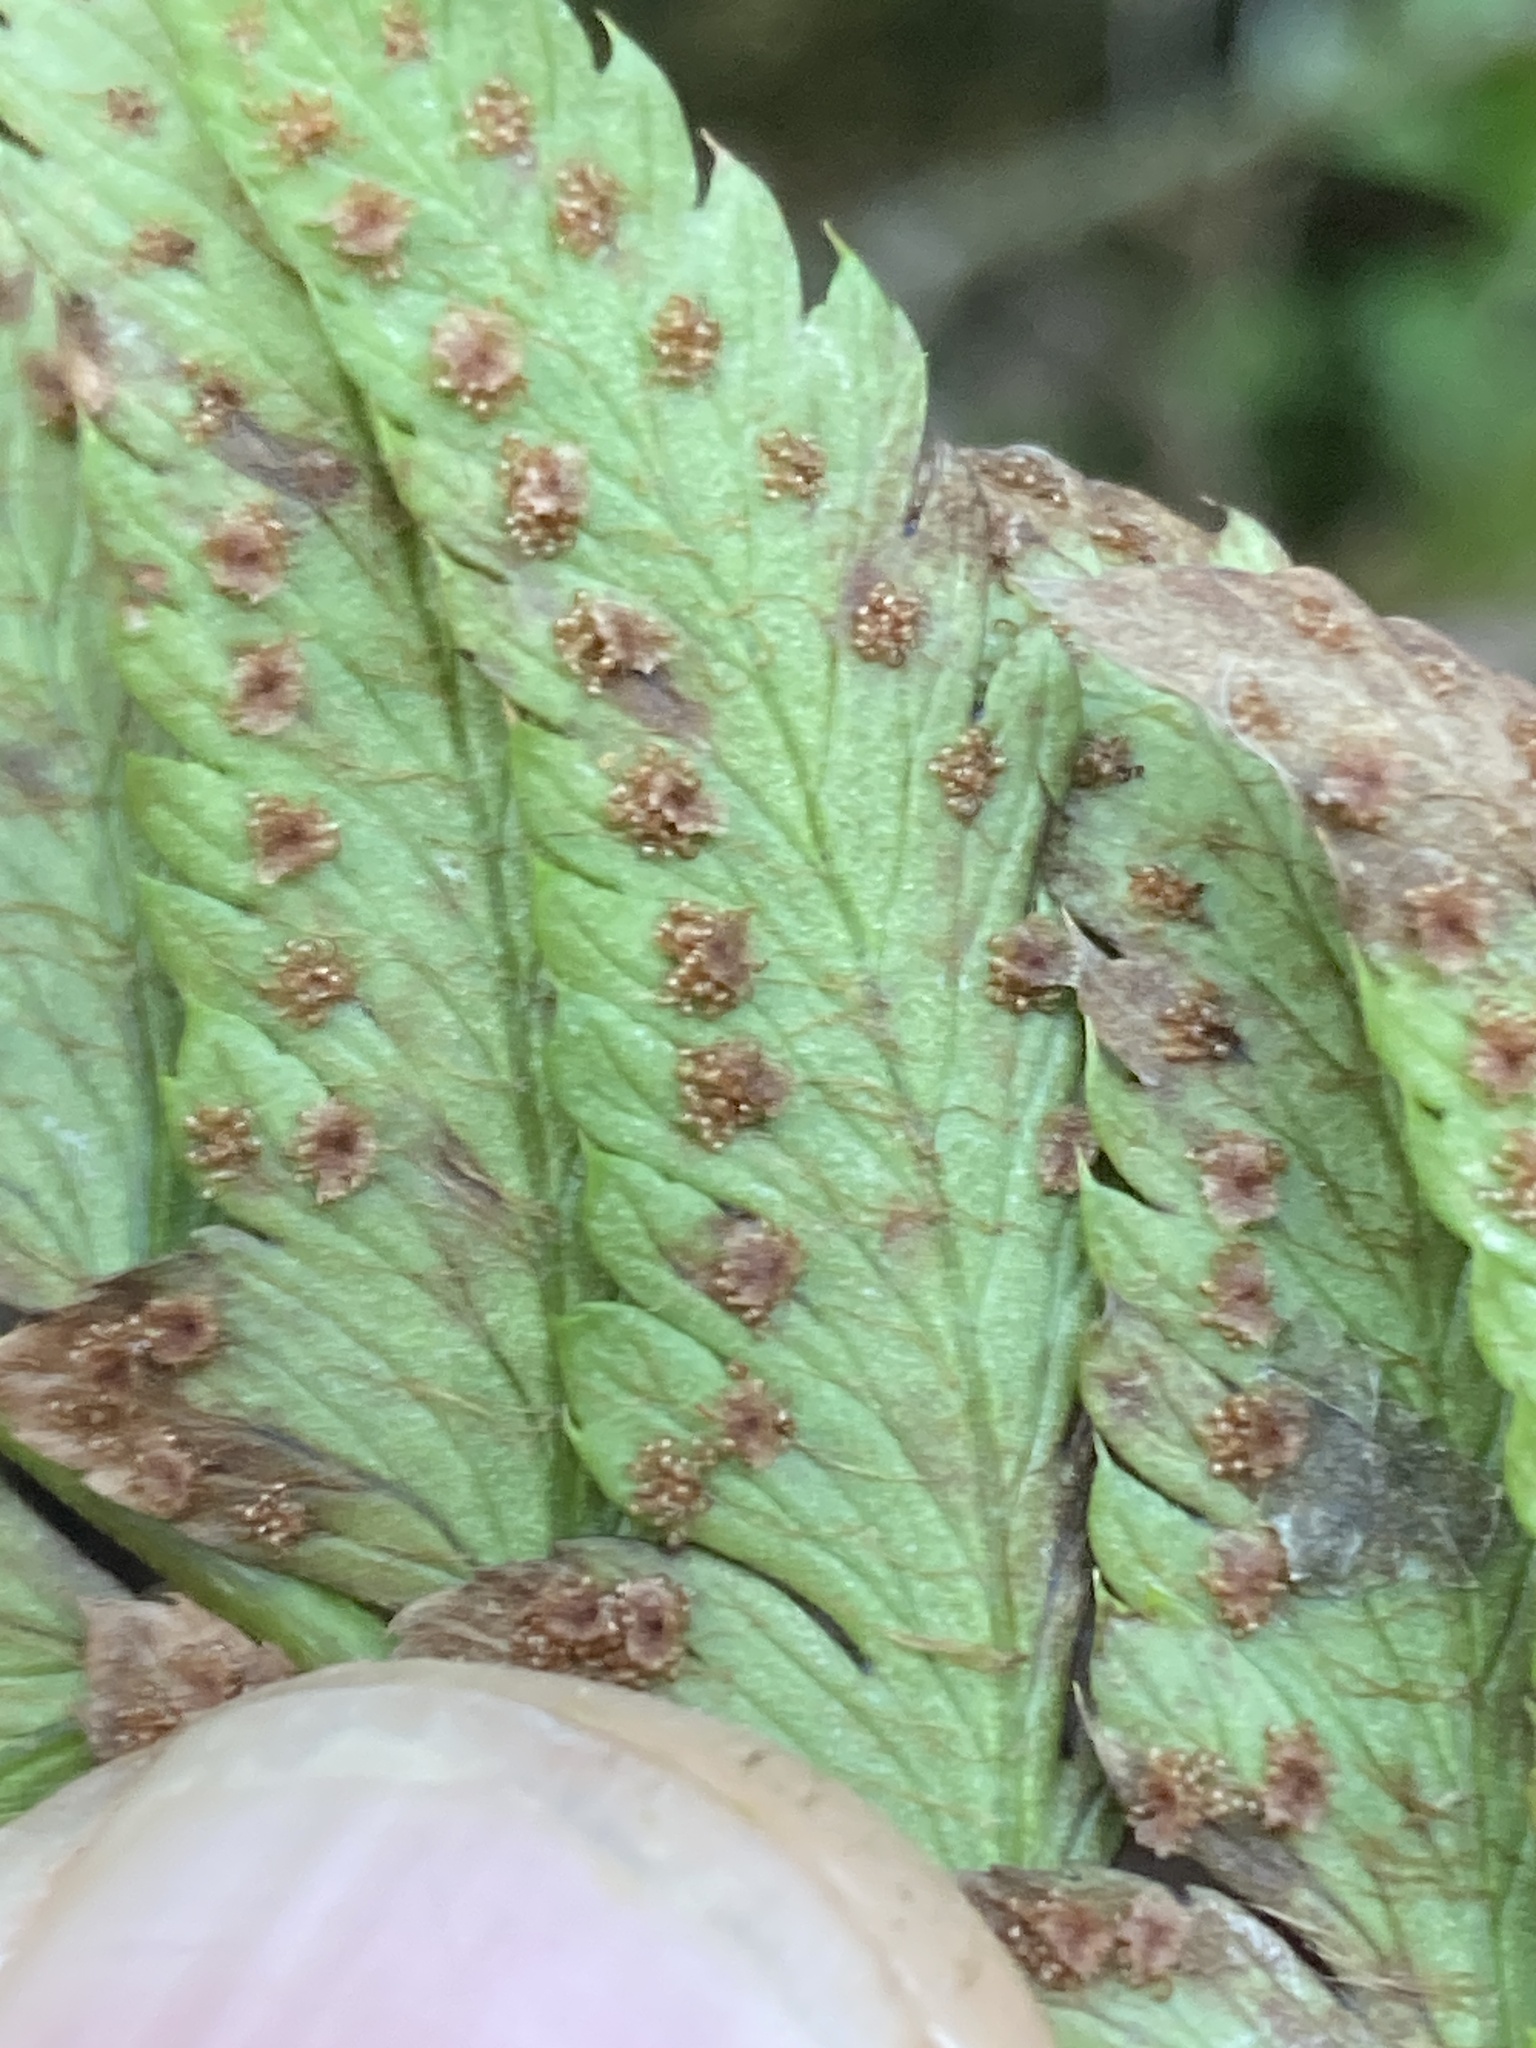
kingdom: Plantae
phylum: Tracheophyta
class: Polypodiopsida
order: Polypodiales
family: Dryopteridaceae
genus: Polystichum
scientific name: Polystichum californicum
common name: California sword fern
